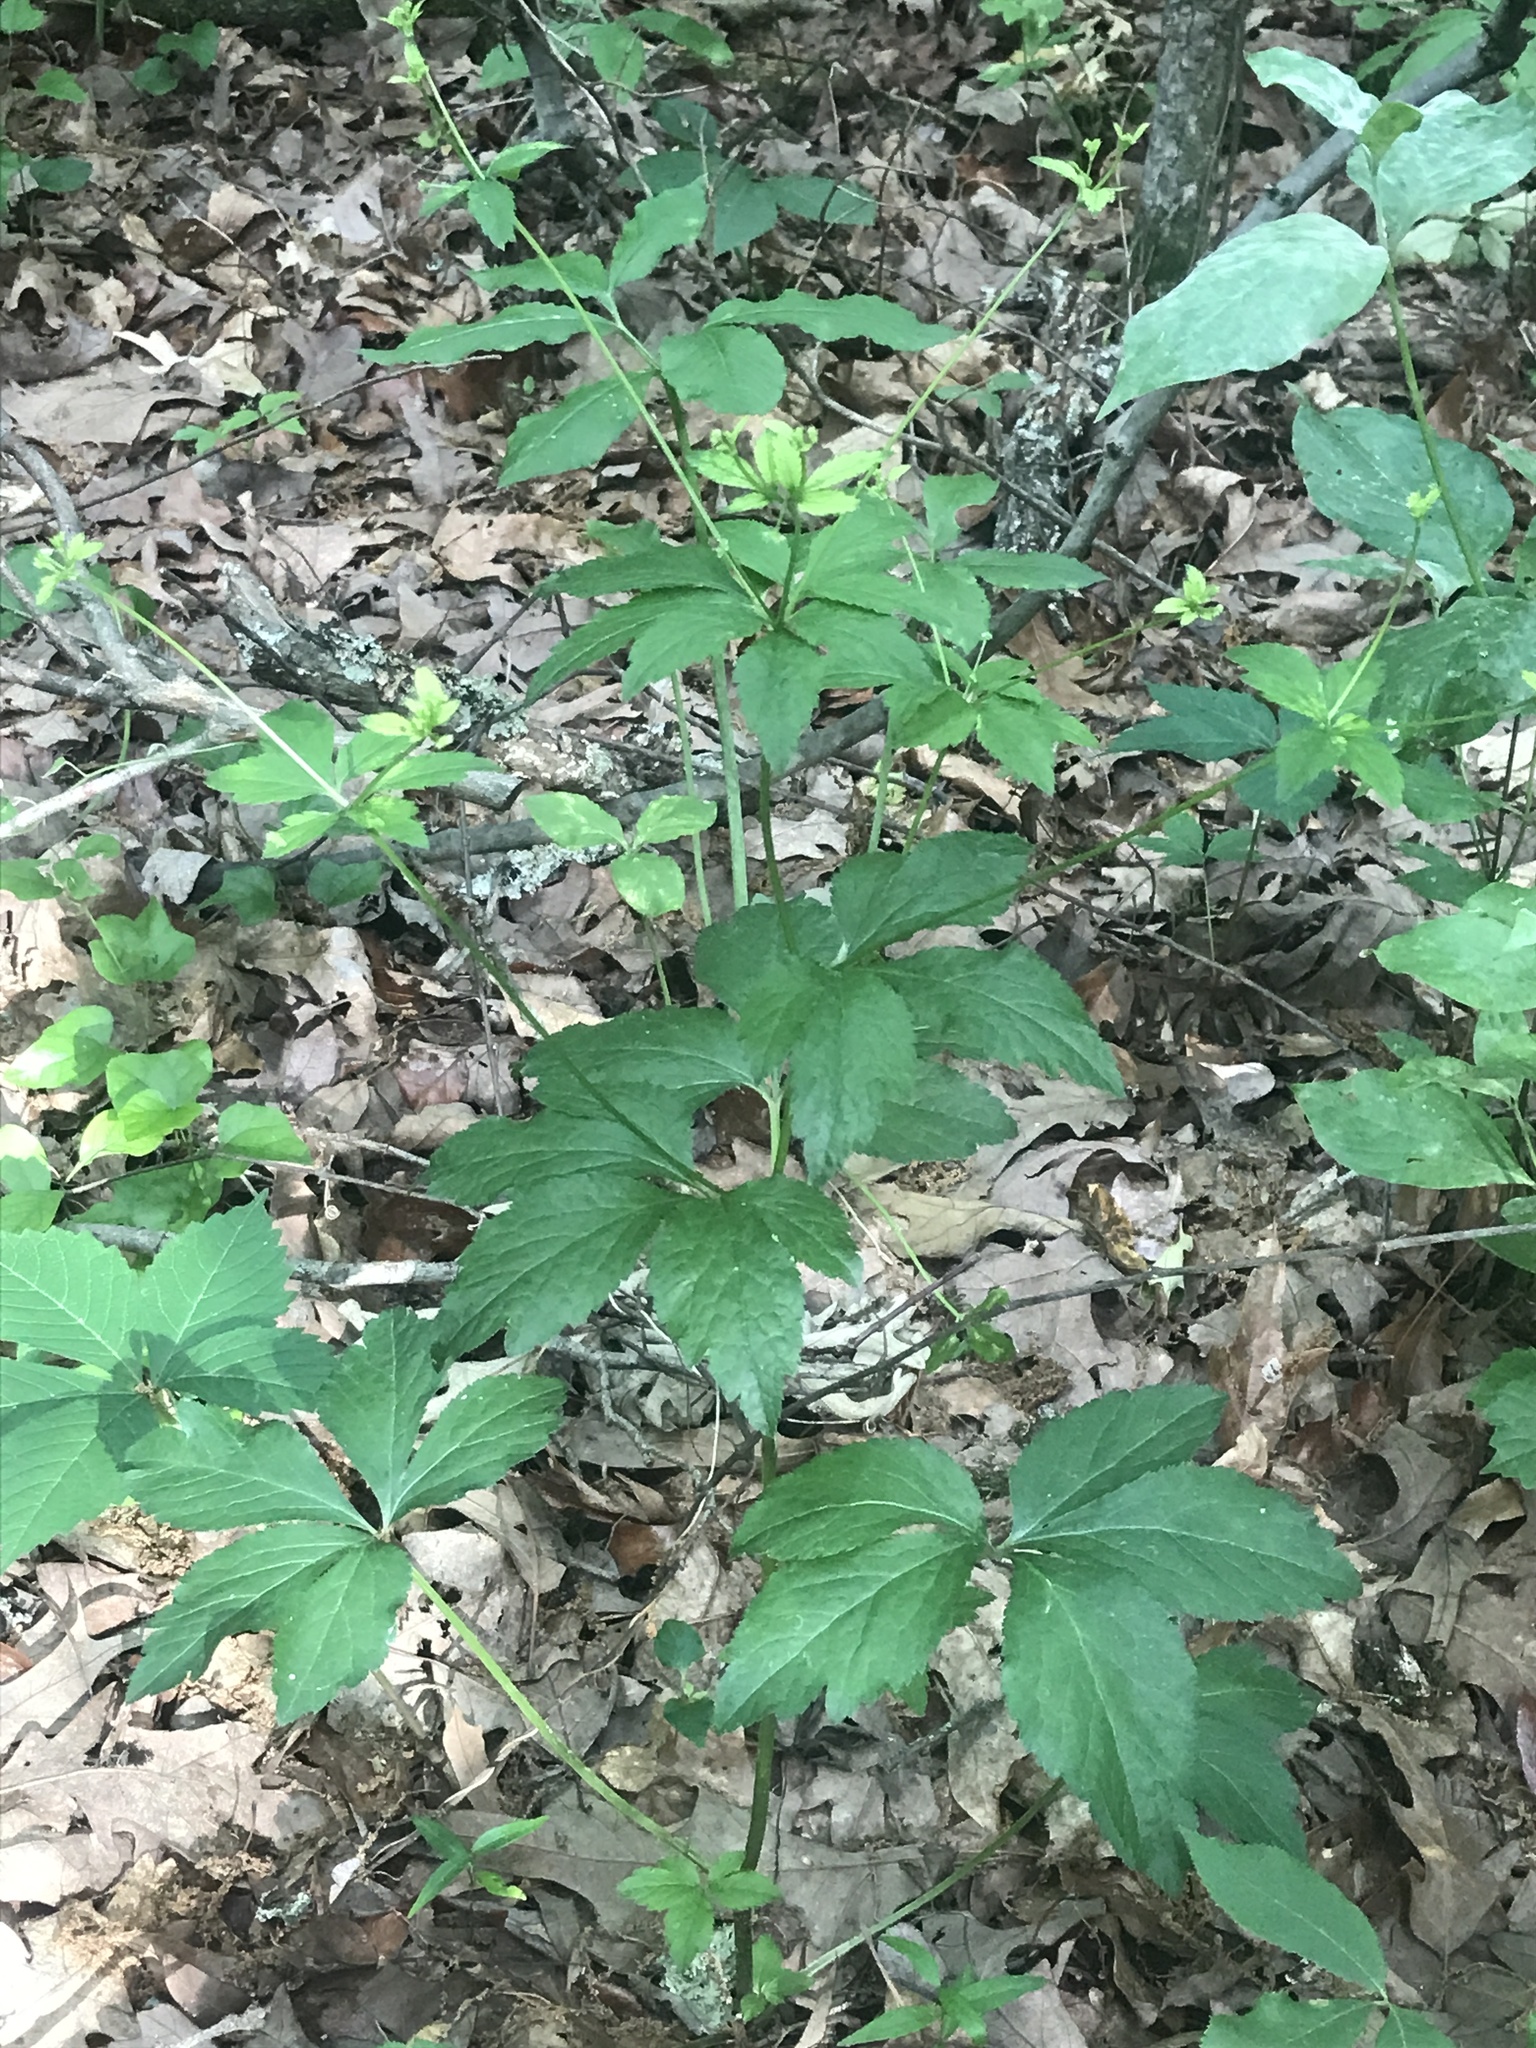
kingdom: Plantae
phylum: Tracheophyta
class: Magnoliopsida
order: Apiales
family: Apiaceae
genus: Sanicula
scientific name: Sanicula canadensis
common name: Canada sanicle
